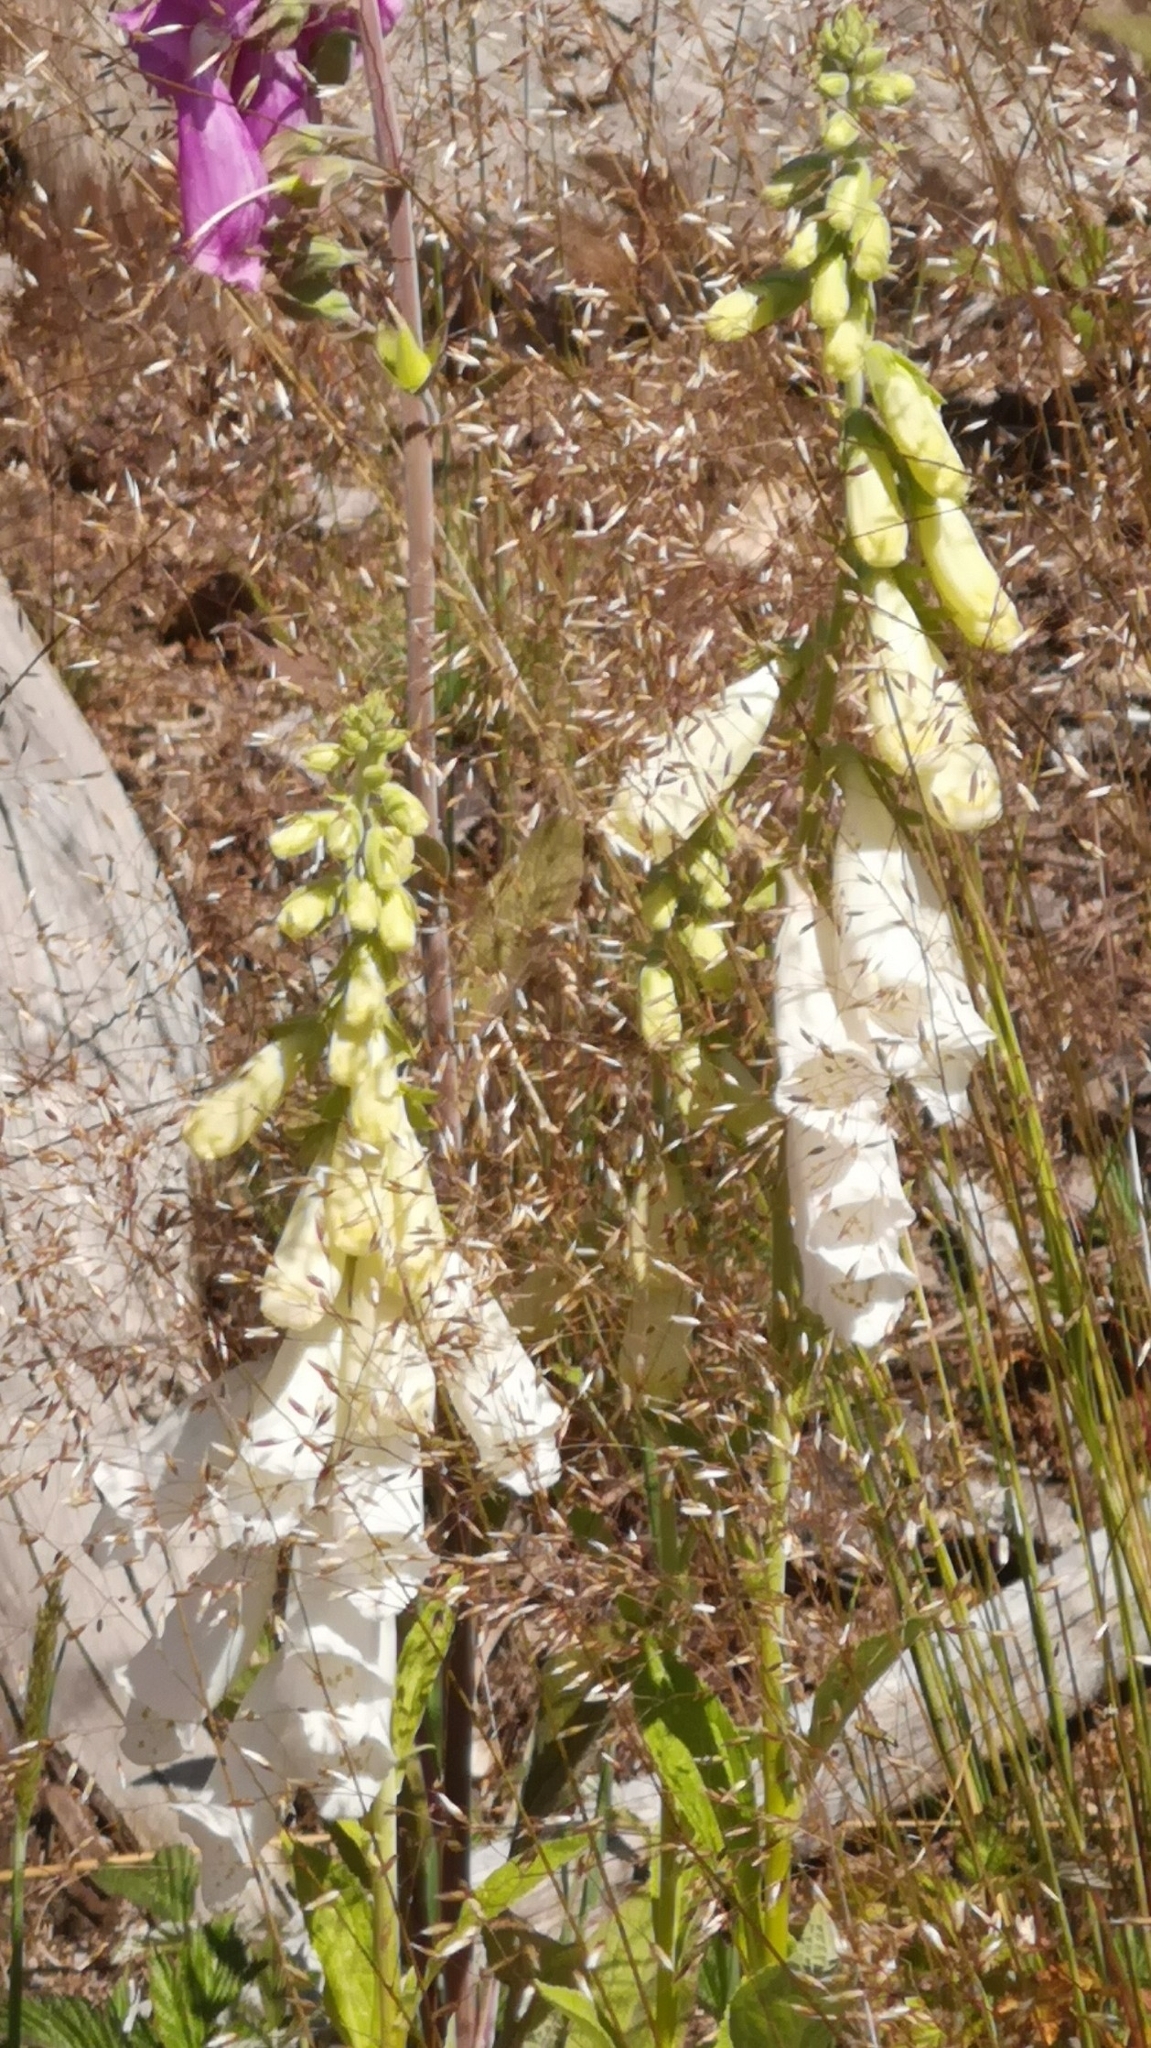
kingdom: Plantae
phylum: Tracheophyta
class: Magnoliopsida
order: Lamiales
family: Plantaginaceae
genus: Digitalis
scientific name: Digitalis purpurea
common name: Foxglove
